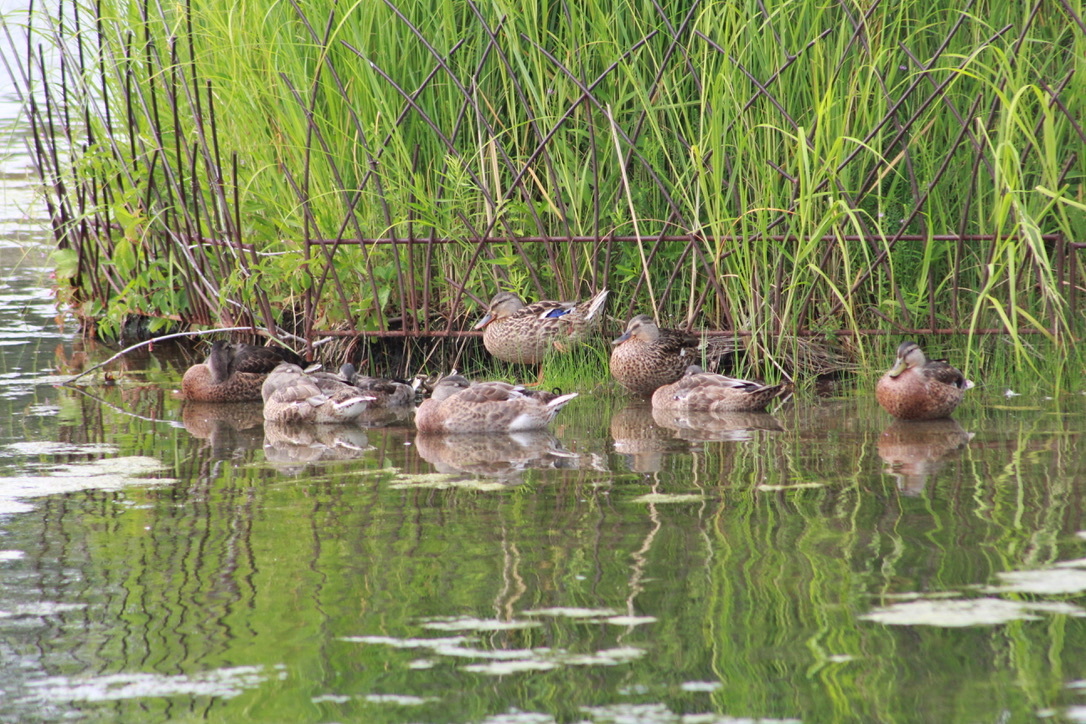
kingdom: Animalia
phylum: Chordata
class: Aves
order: Anseriformes
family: Anatidae
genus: Anas
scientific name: Anas platyrhynchos
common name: Mallard
